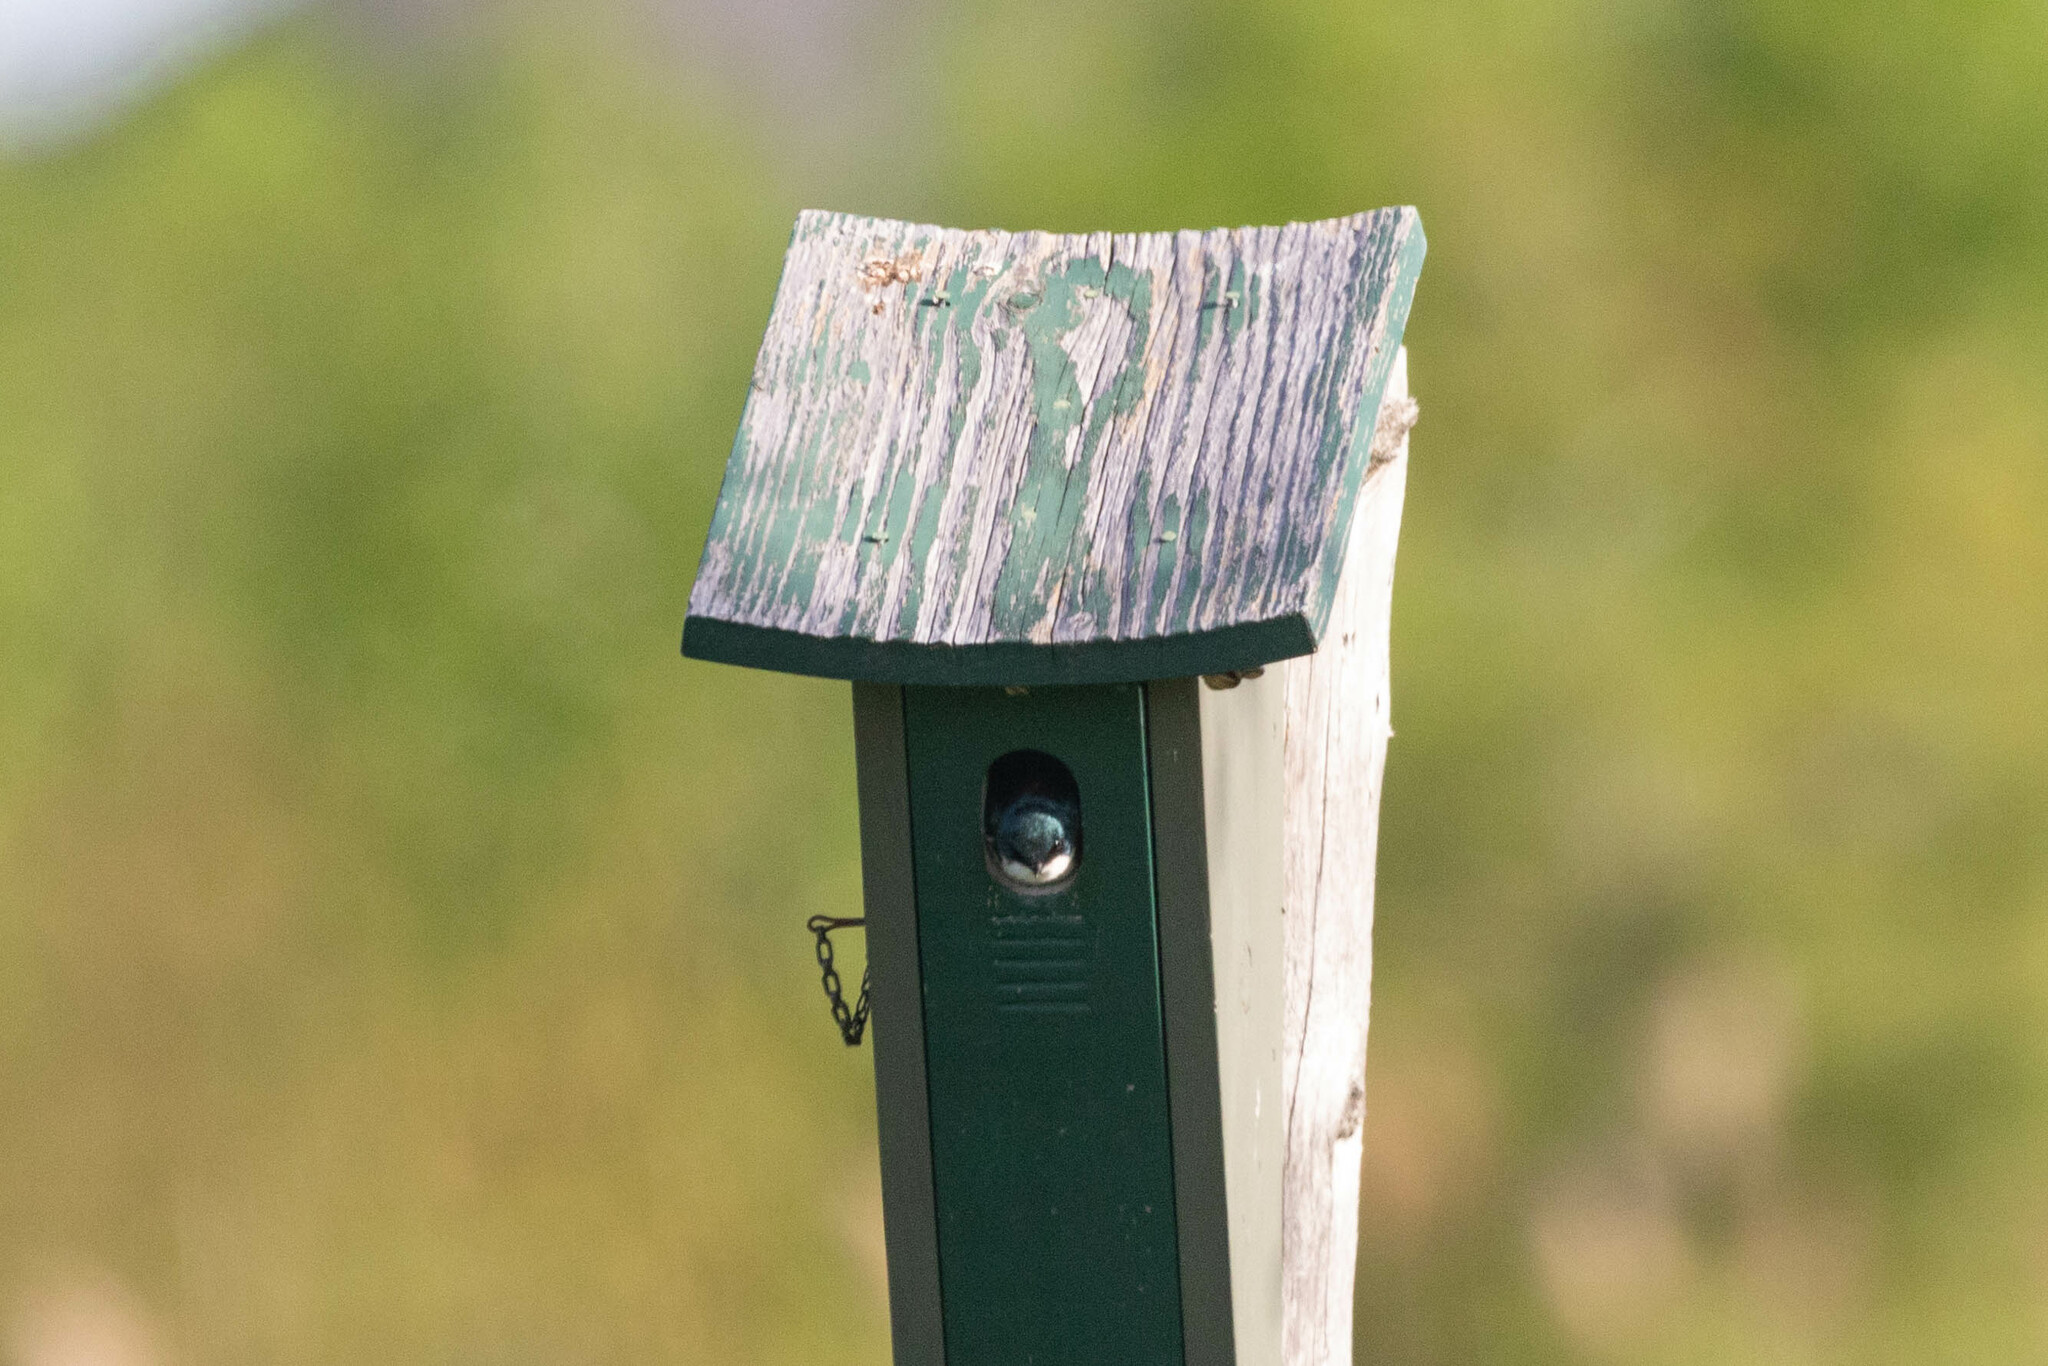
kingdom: Animalia
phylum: Chordata
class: Aves
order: Passeriformes
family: Hirundinidae
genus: Tachycineta
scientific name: Tachycineta bicolor
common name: Tree swallow
